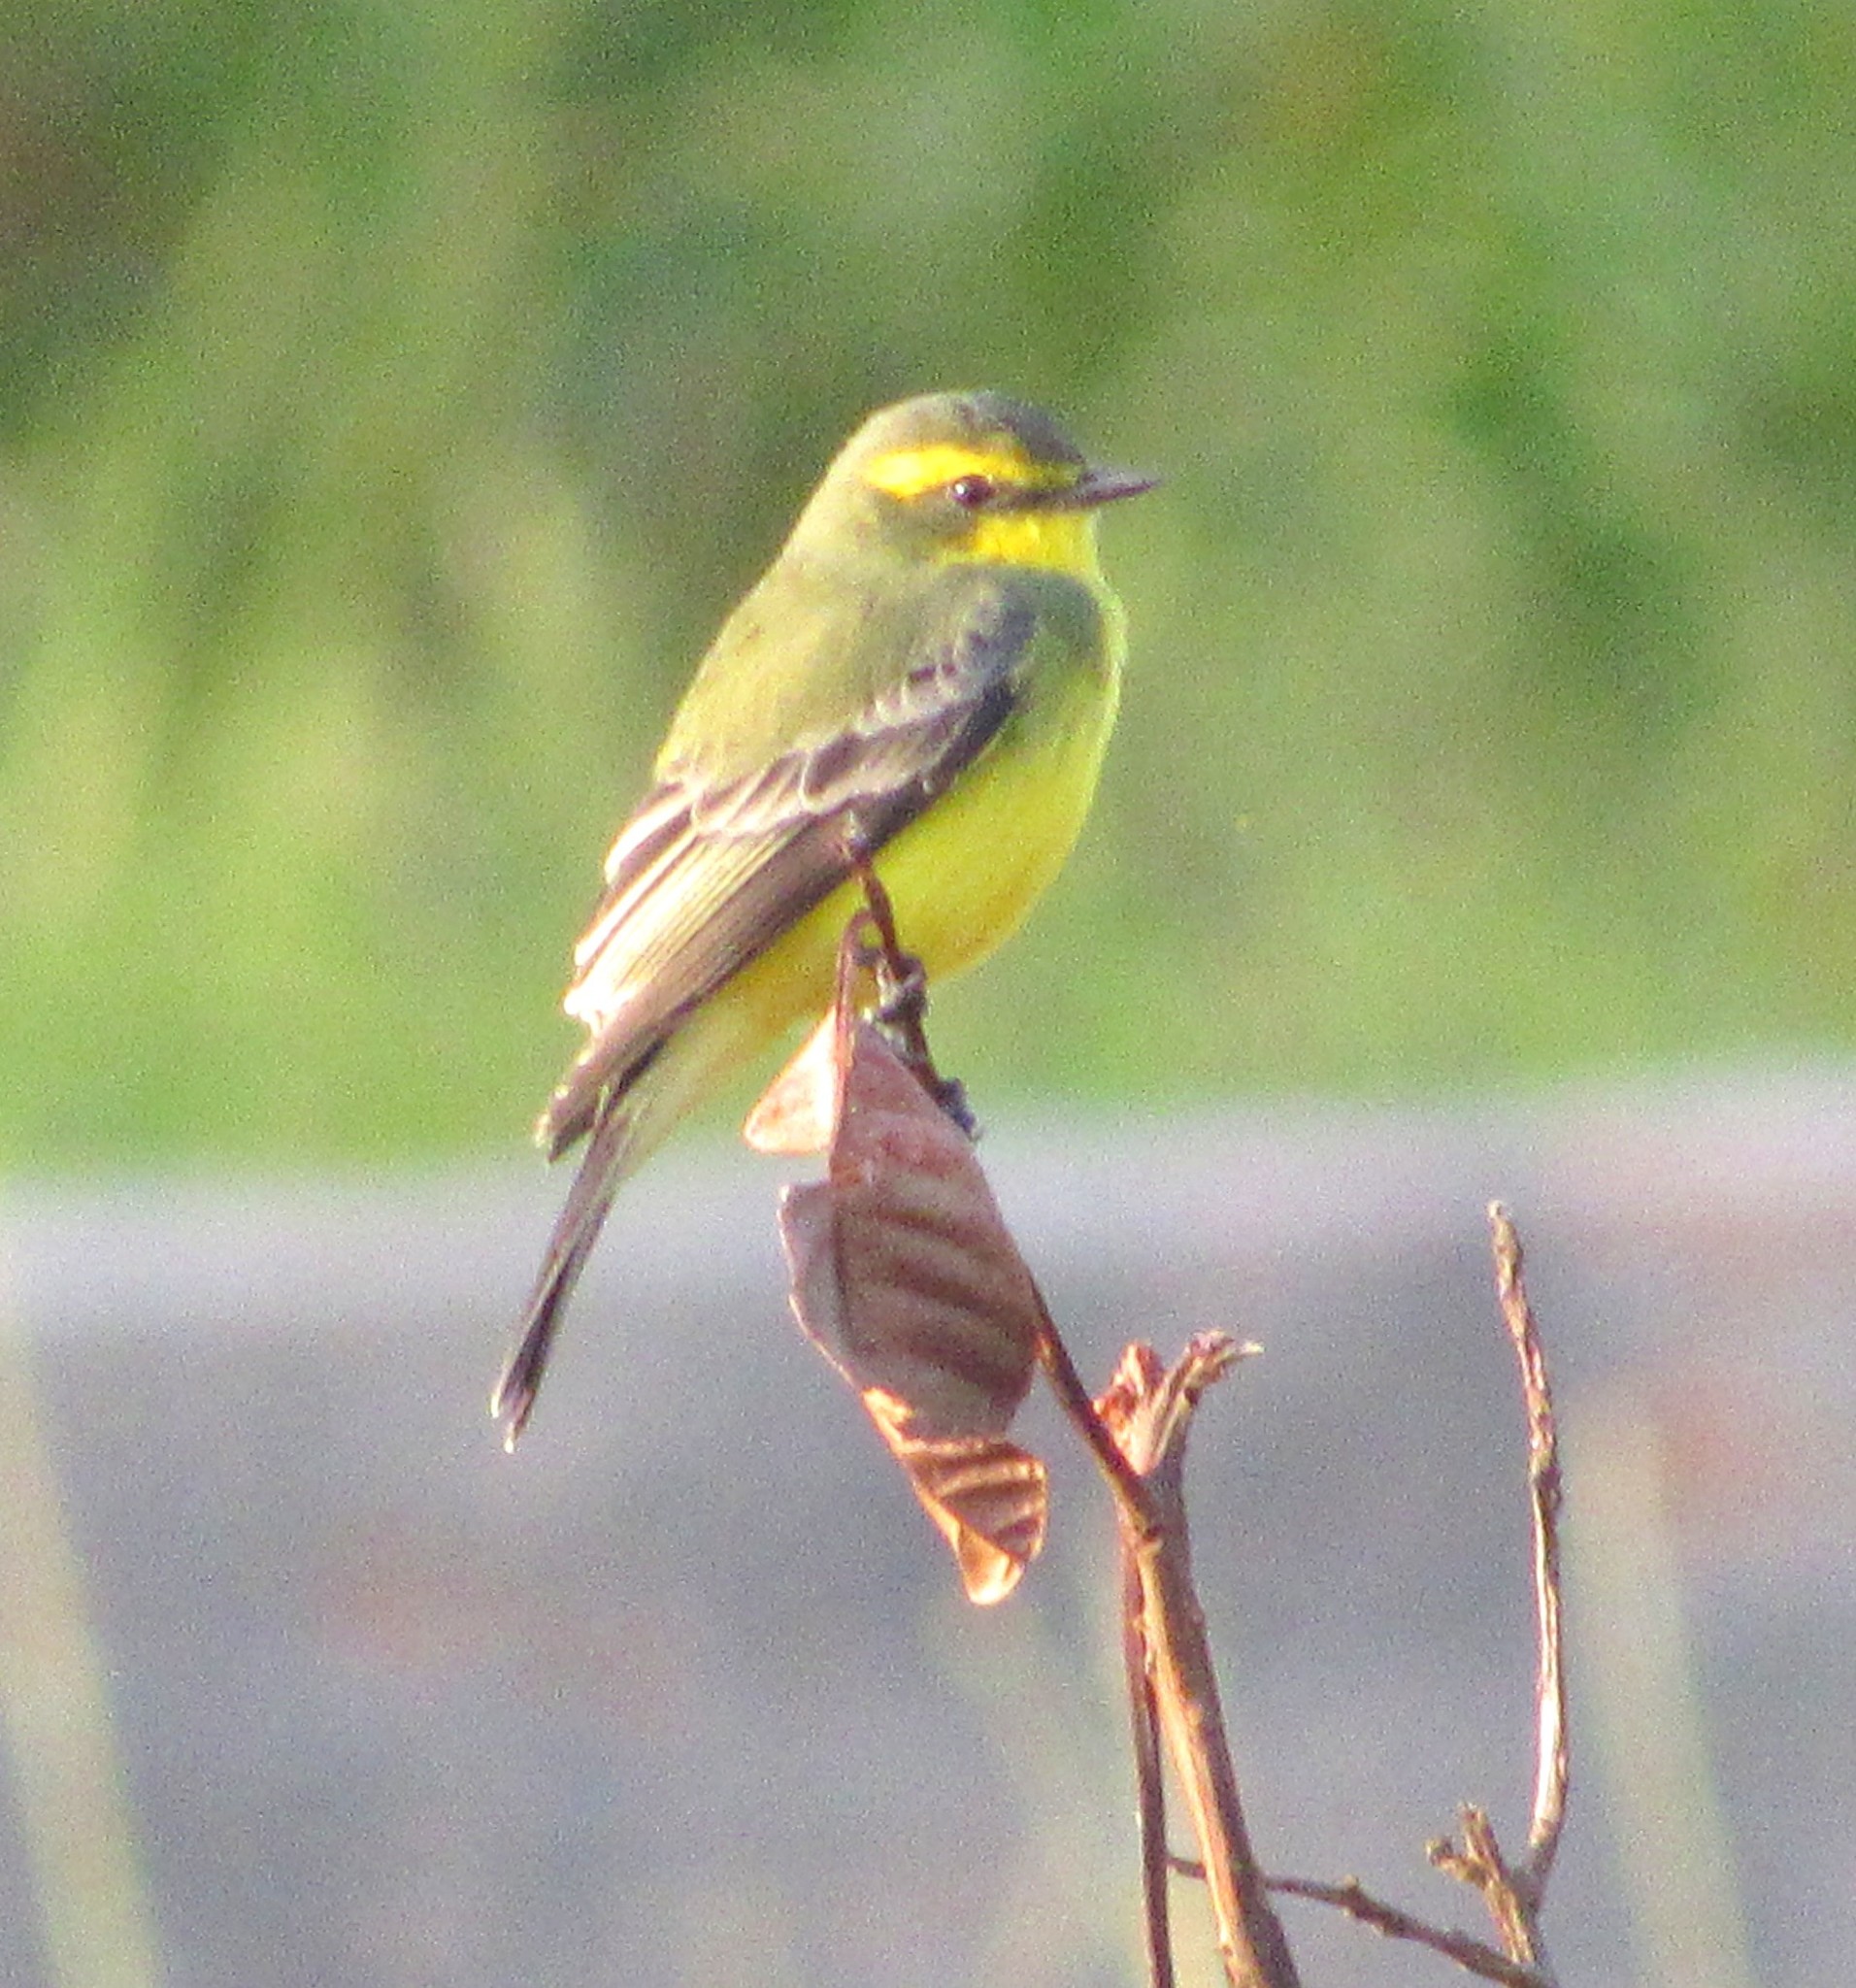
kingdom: Animalia
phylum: Chordata
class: Aves
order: Passeriformes
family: Tyrannidae
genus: Satrapa
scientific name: Satrapa icterophrys
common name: Yellow-browed tyrant
